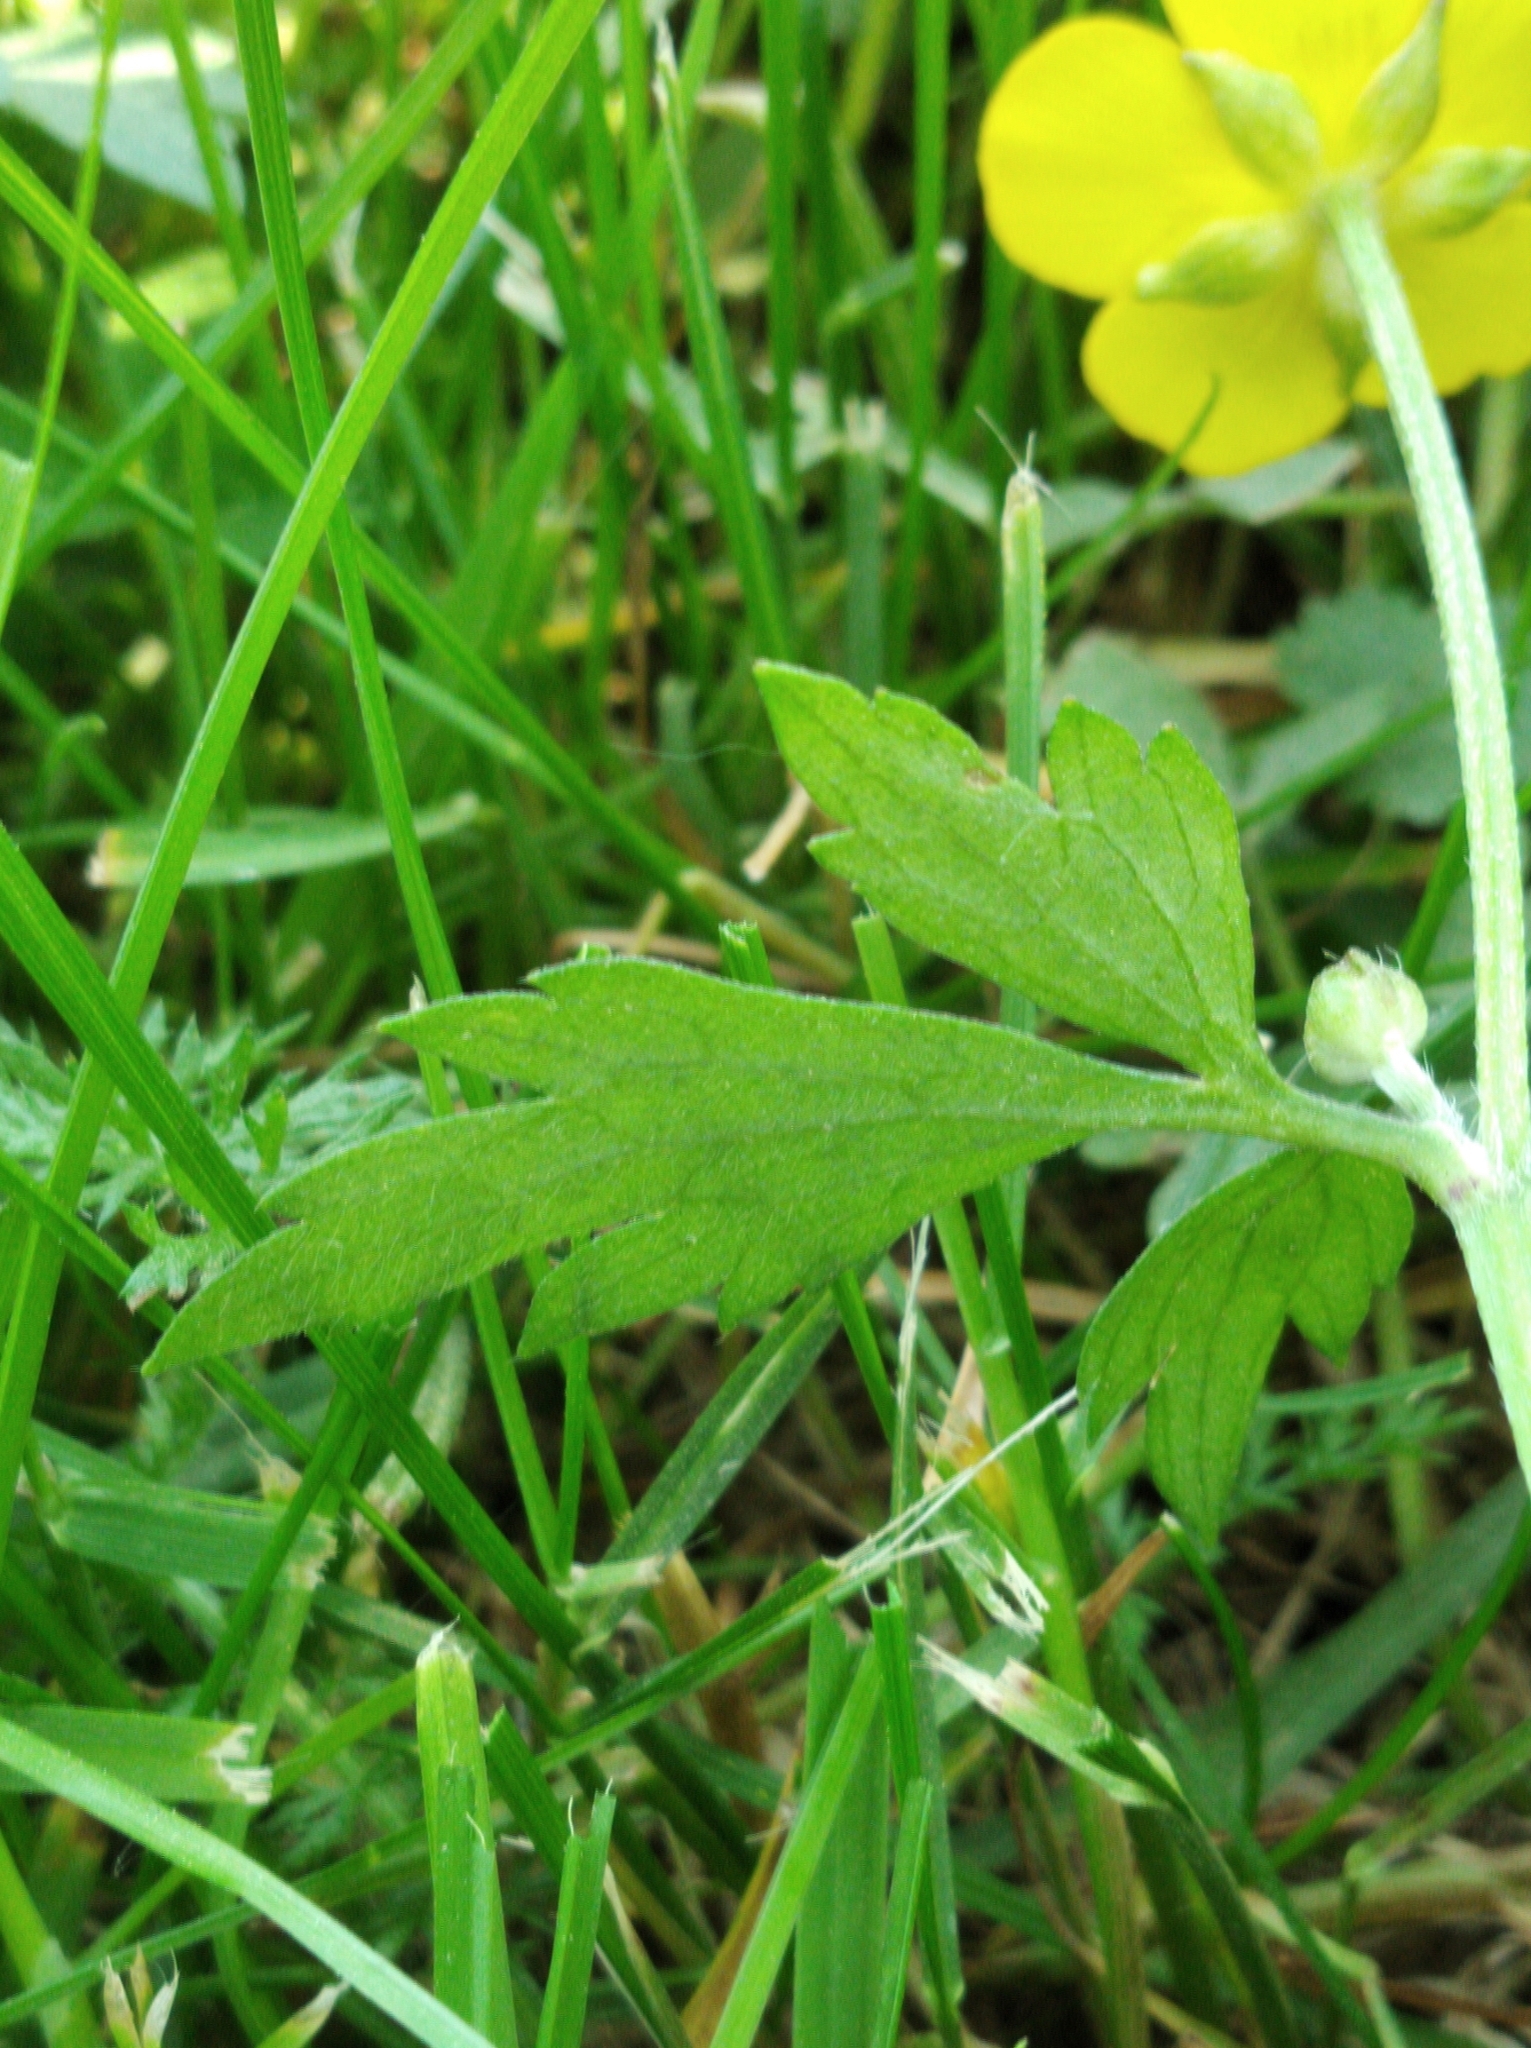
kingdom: Plantae
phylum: Tracheophyta
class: Magnoliopsida
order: Ranunculales
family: Ranunculaceae
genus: Ranunculus
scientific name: Ranunculus repens
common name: Creeping buttercup
